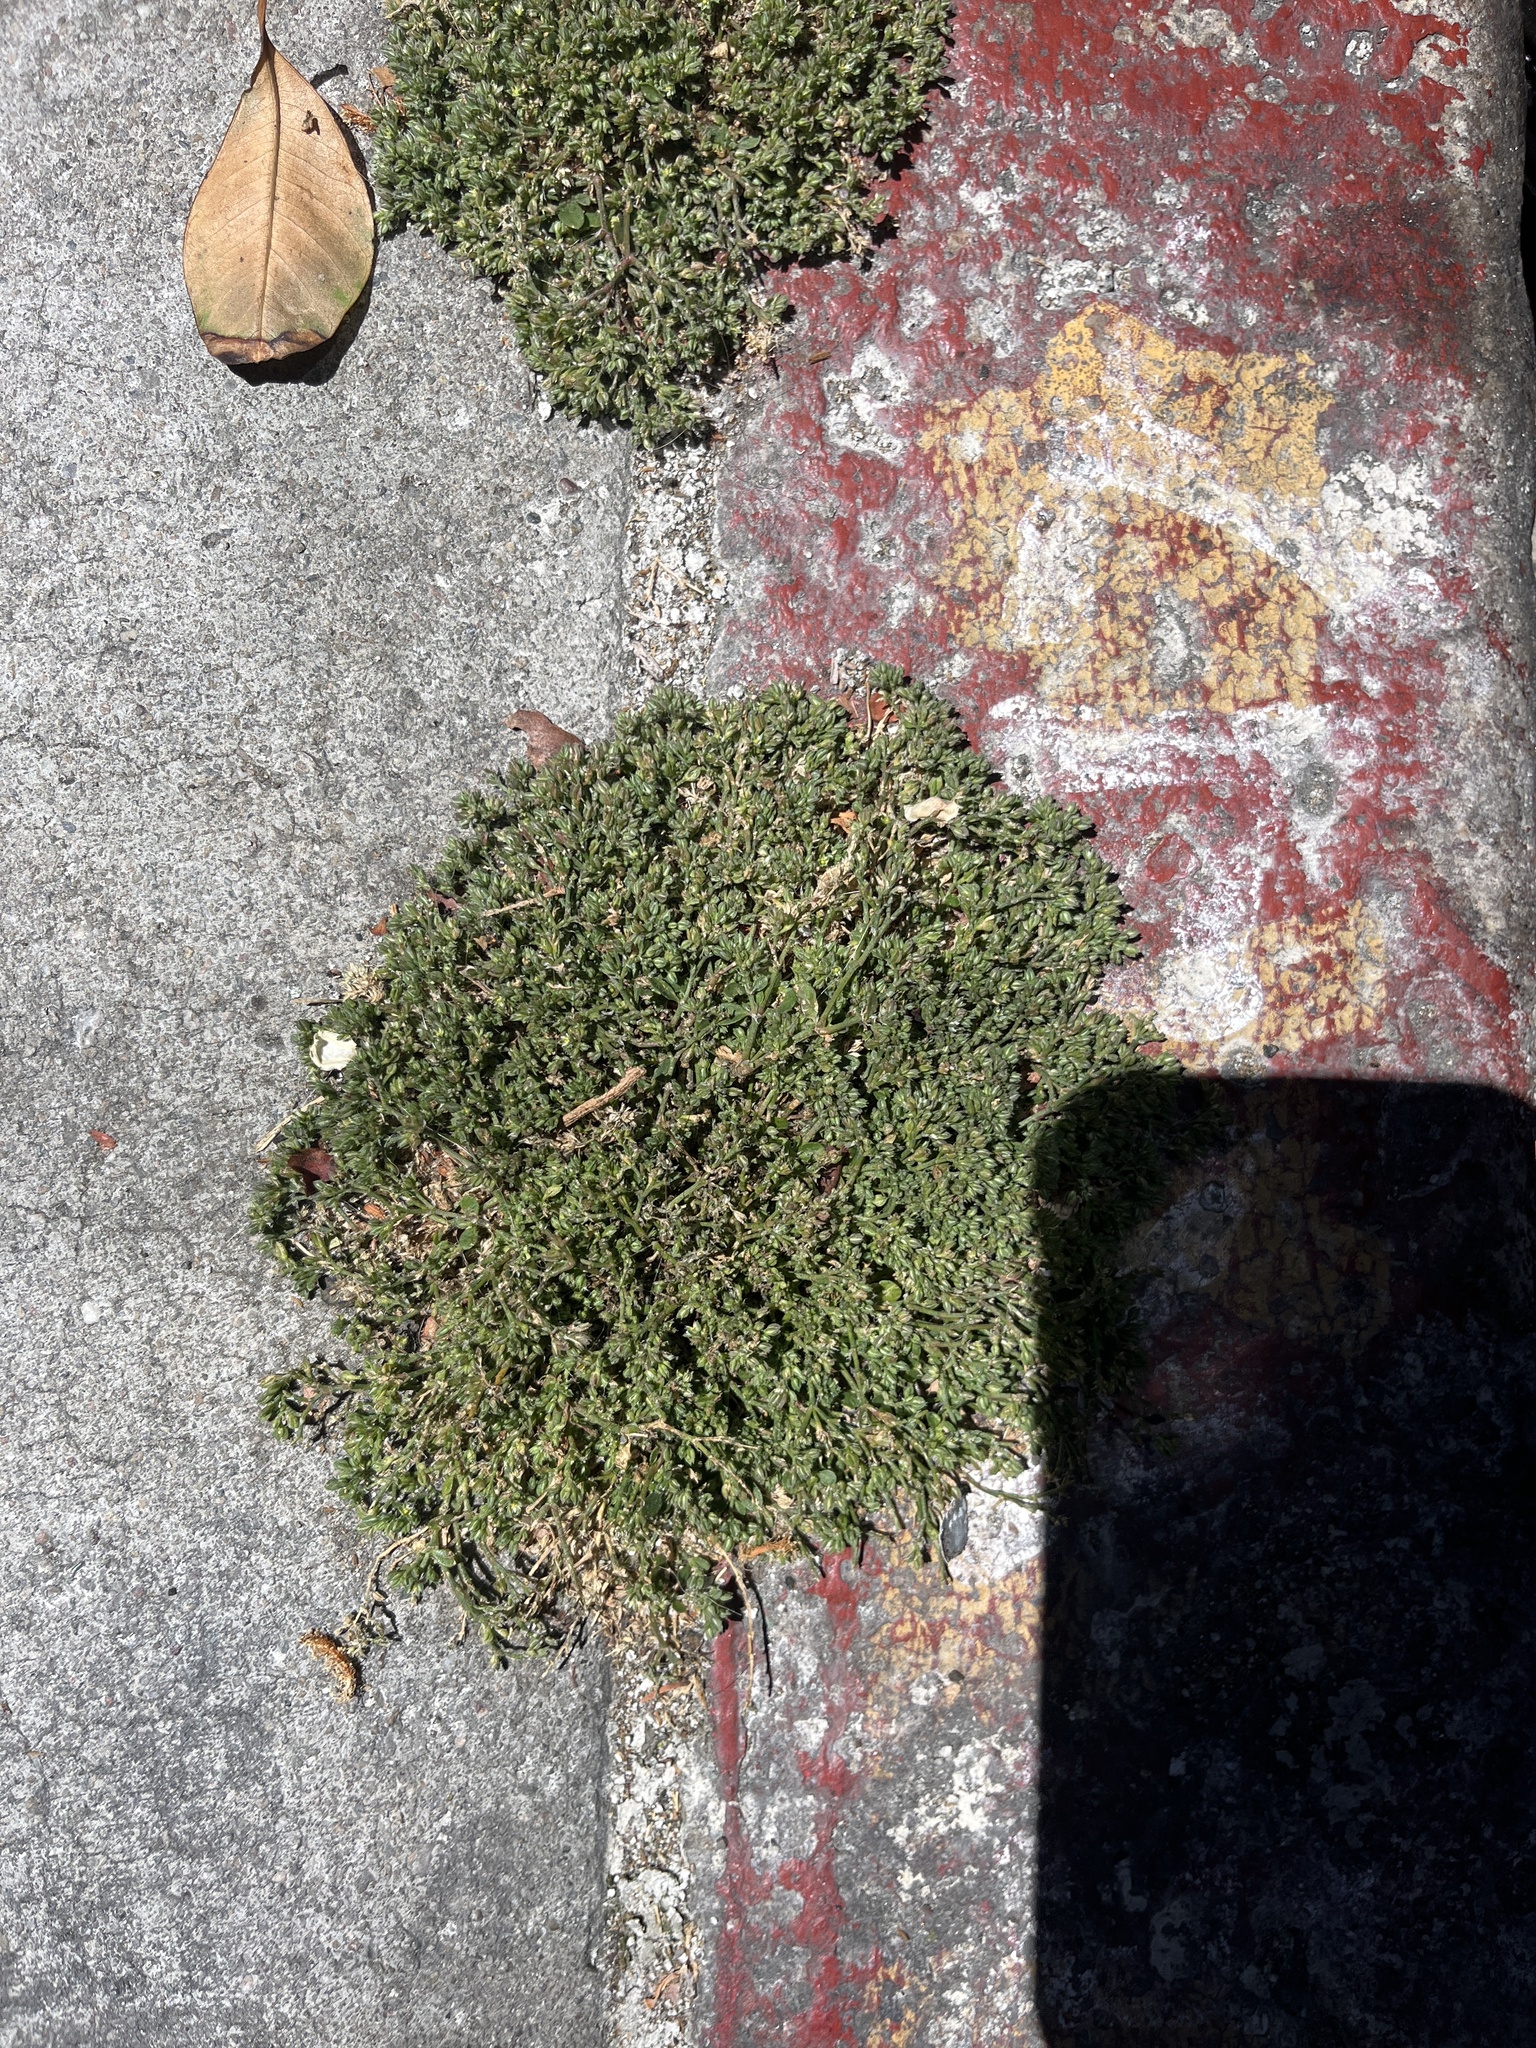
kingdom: Plantae
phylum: Tracheophyta
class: Magnoliopsida
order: Caryophyllales
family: Caryophyllaceae
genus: Polycarpon
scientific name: Polycarpon tetraphyllum
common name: Four-leaved all-seed
